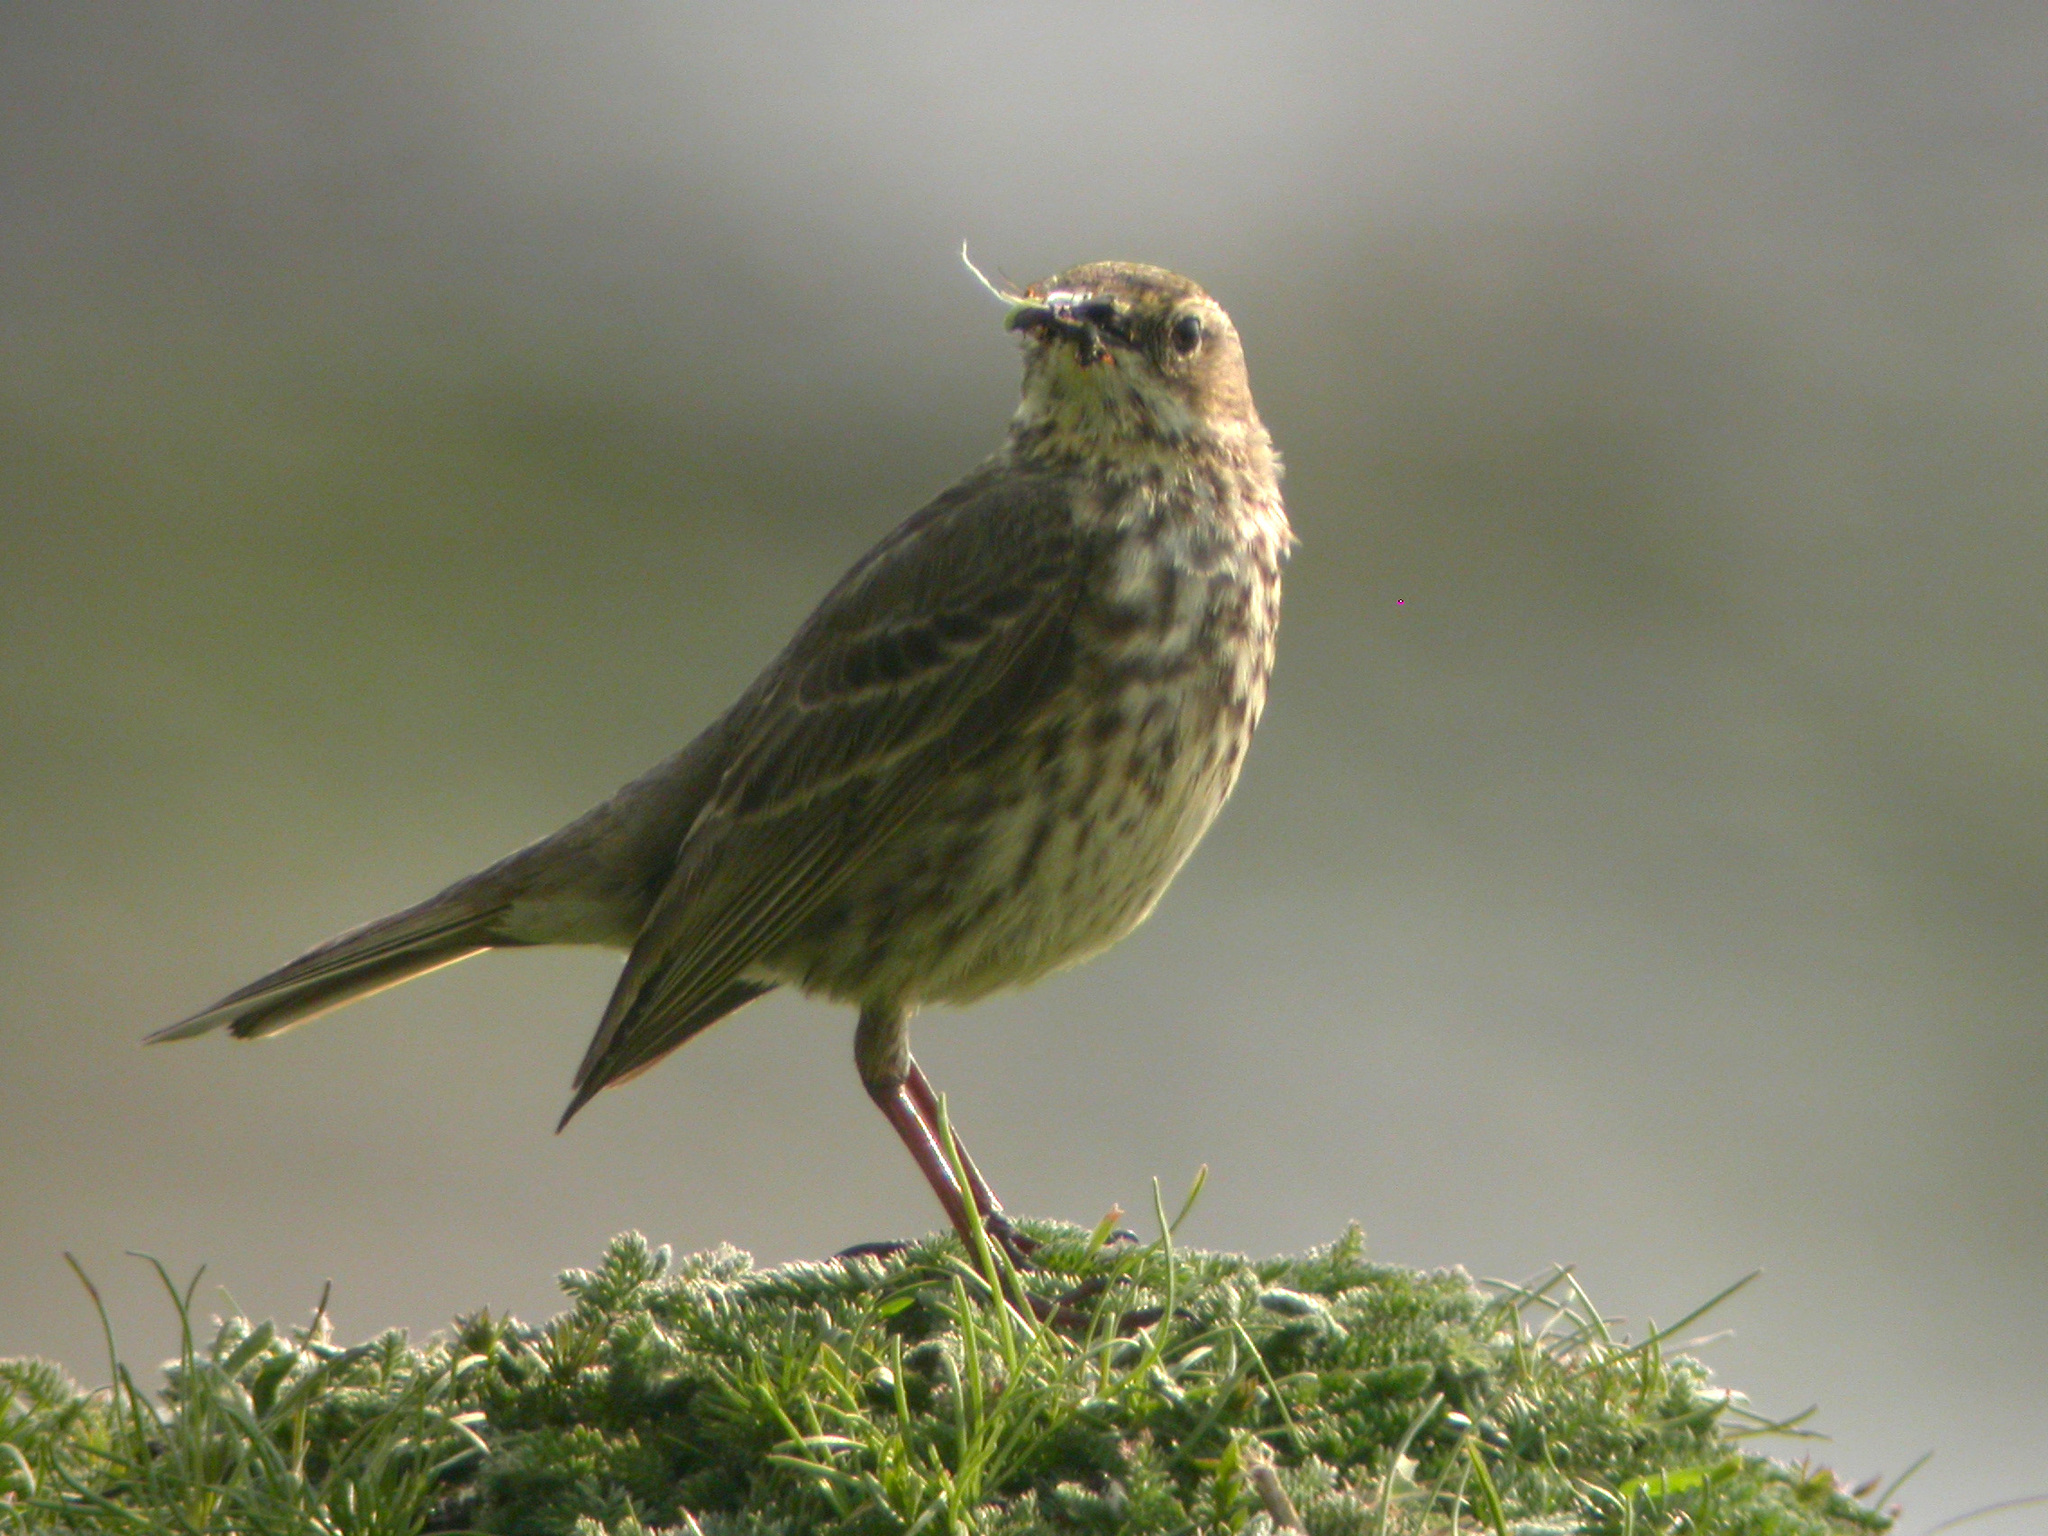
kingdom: Animalia
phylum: Chordata
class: Aves
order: Passeriformes
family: Motacillidae
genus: Anthus
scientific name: Anthus petrosus
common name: Eurasian rock pipit
